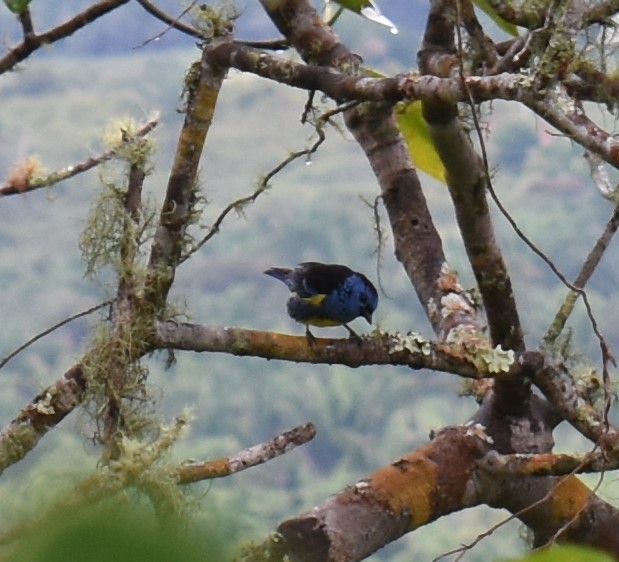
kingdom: Animalia
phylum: Chordata
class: Aves
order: Passeriformes
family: Thraupidae
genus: Tangara
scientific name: Tangara mexicana
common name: Turquoise tanager
